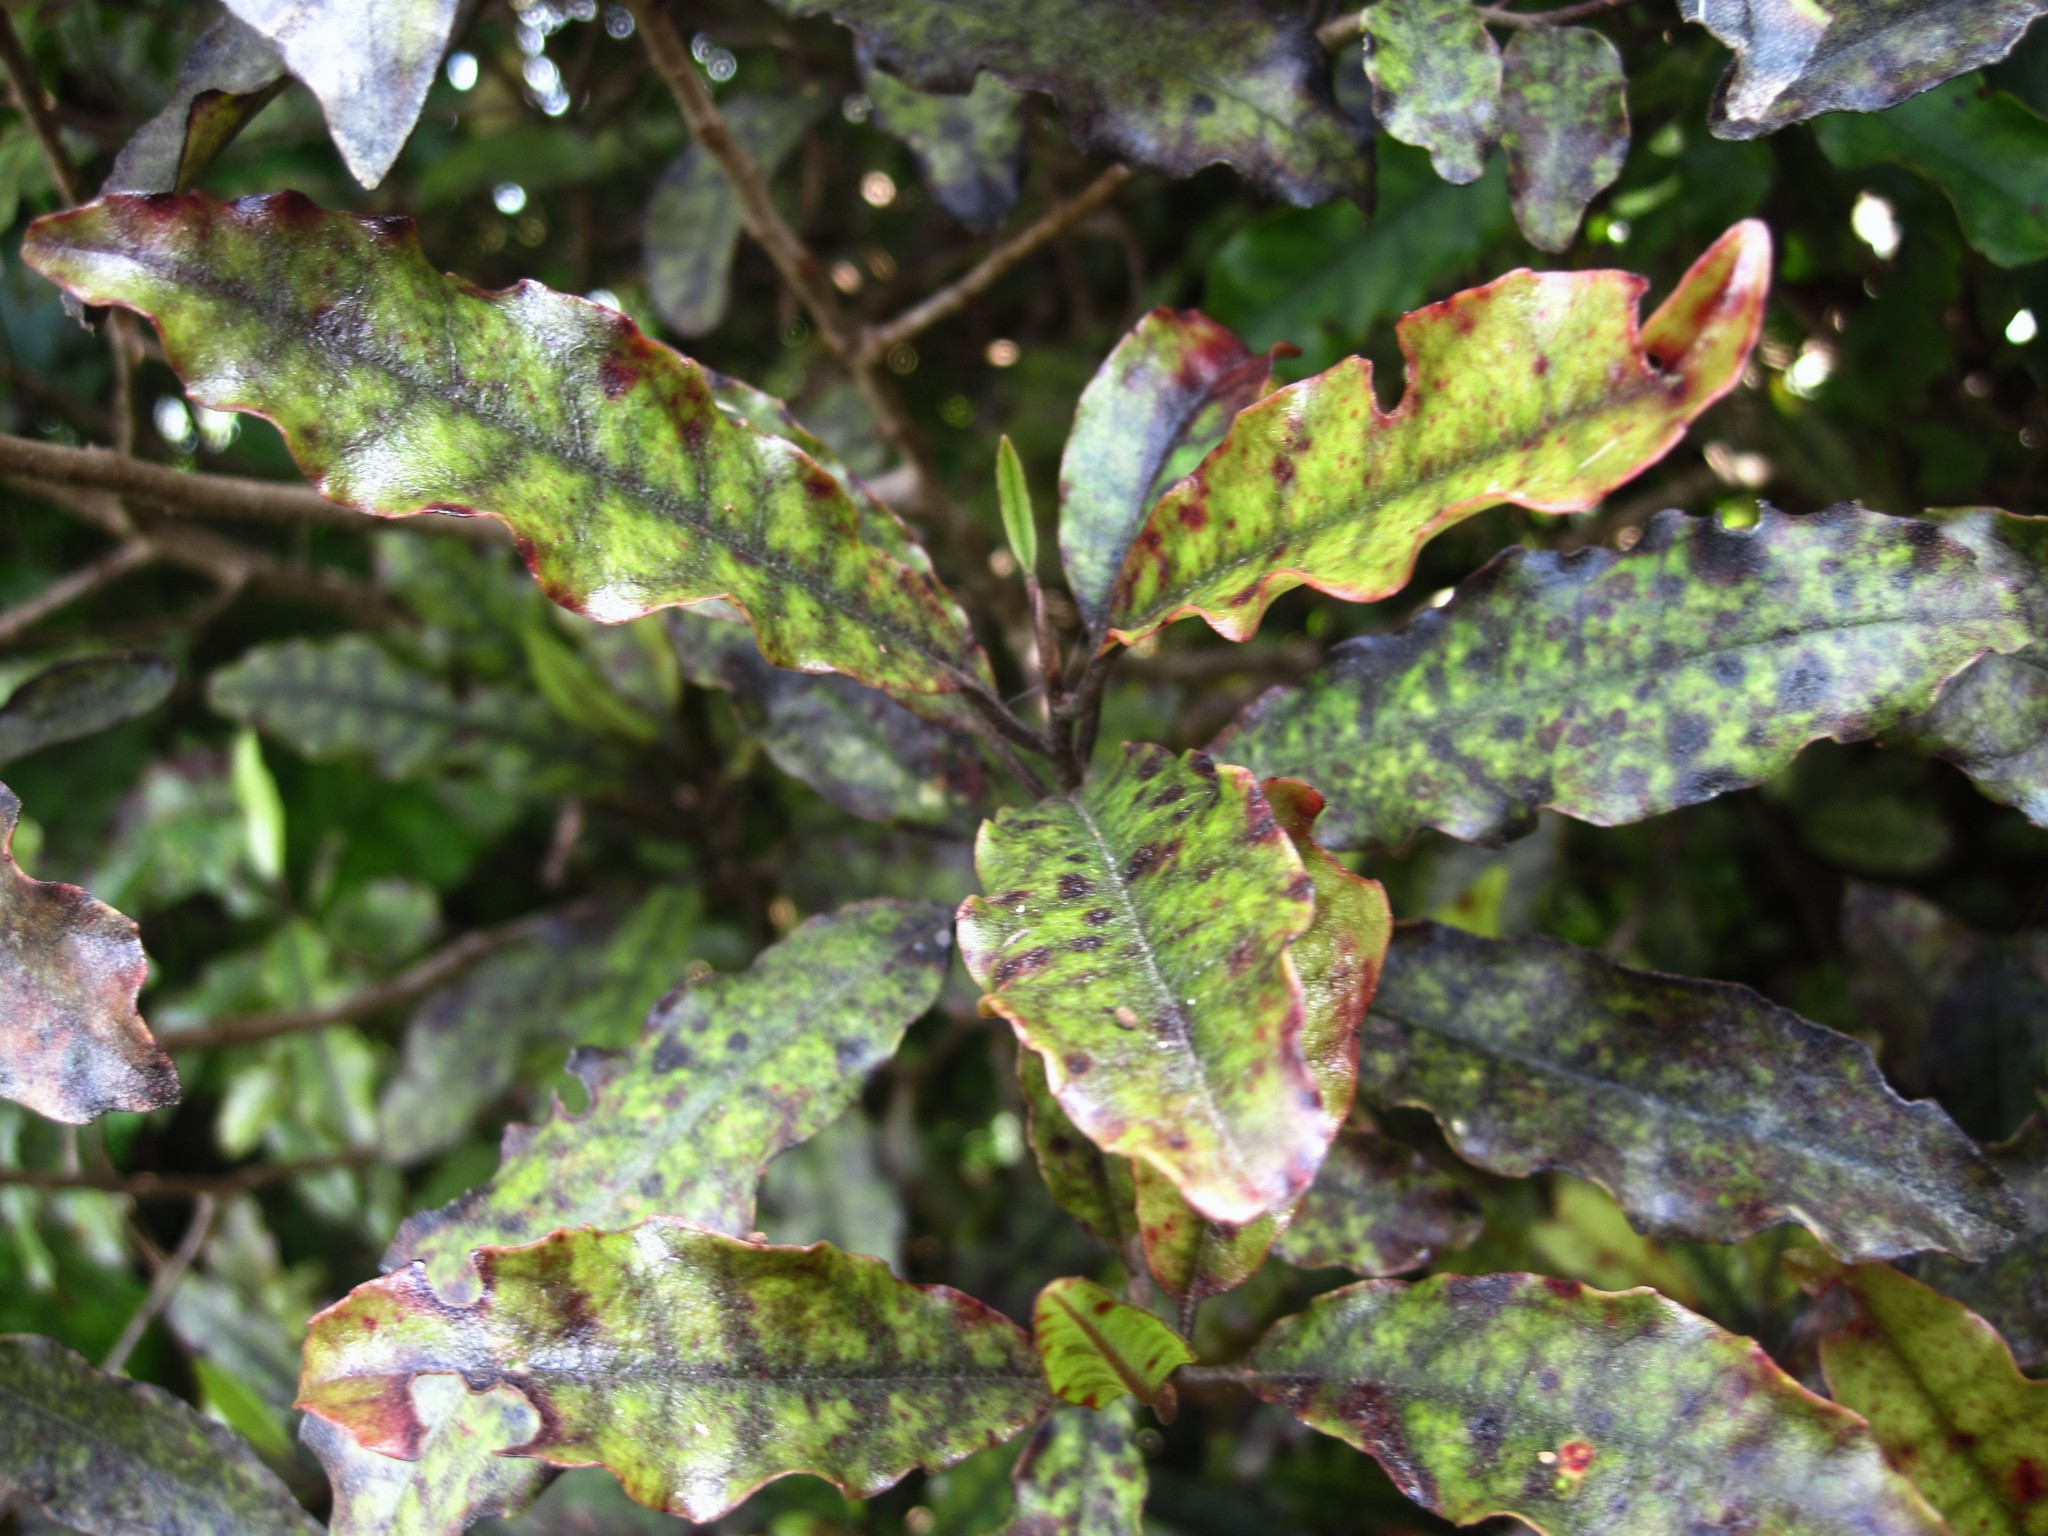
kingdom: Plantae
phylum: Tracheophyta
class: Magnoliopsida
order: Paracryphiales
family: Paracryphiaceae
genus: Quintinia
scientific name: Quintinia serrata
